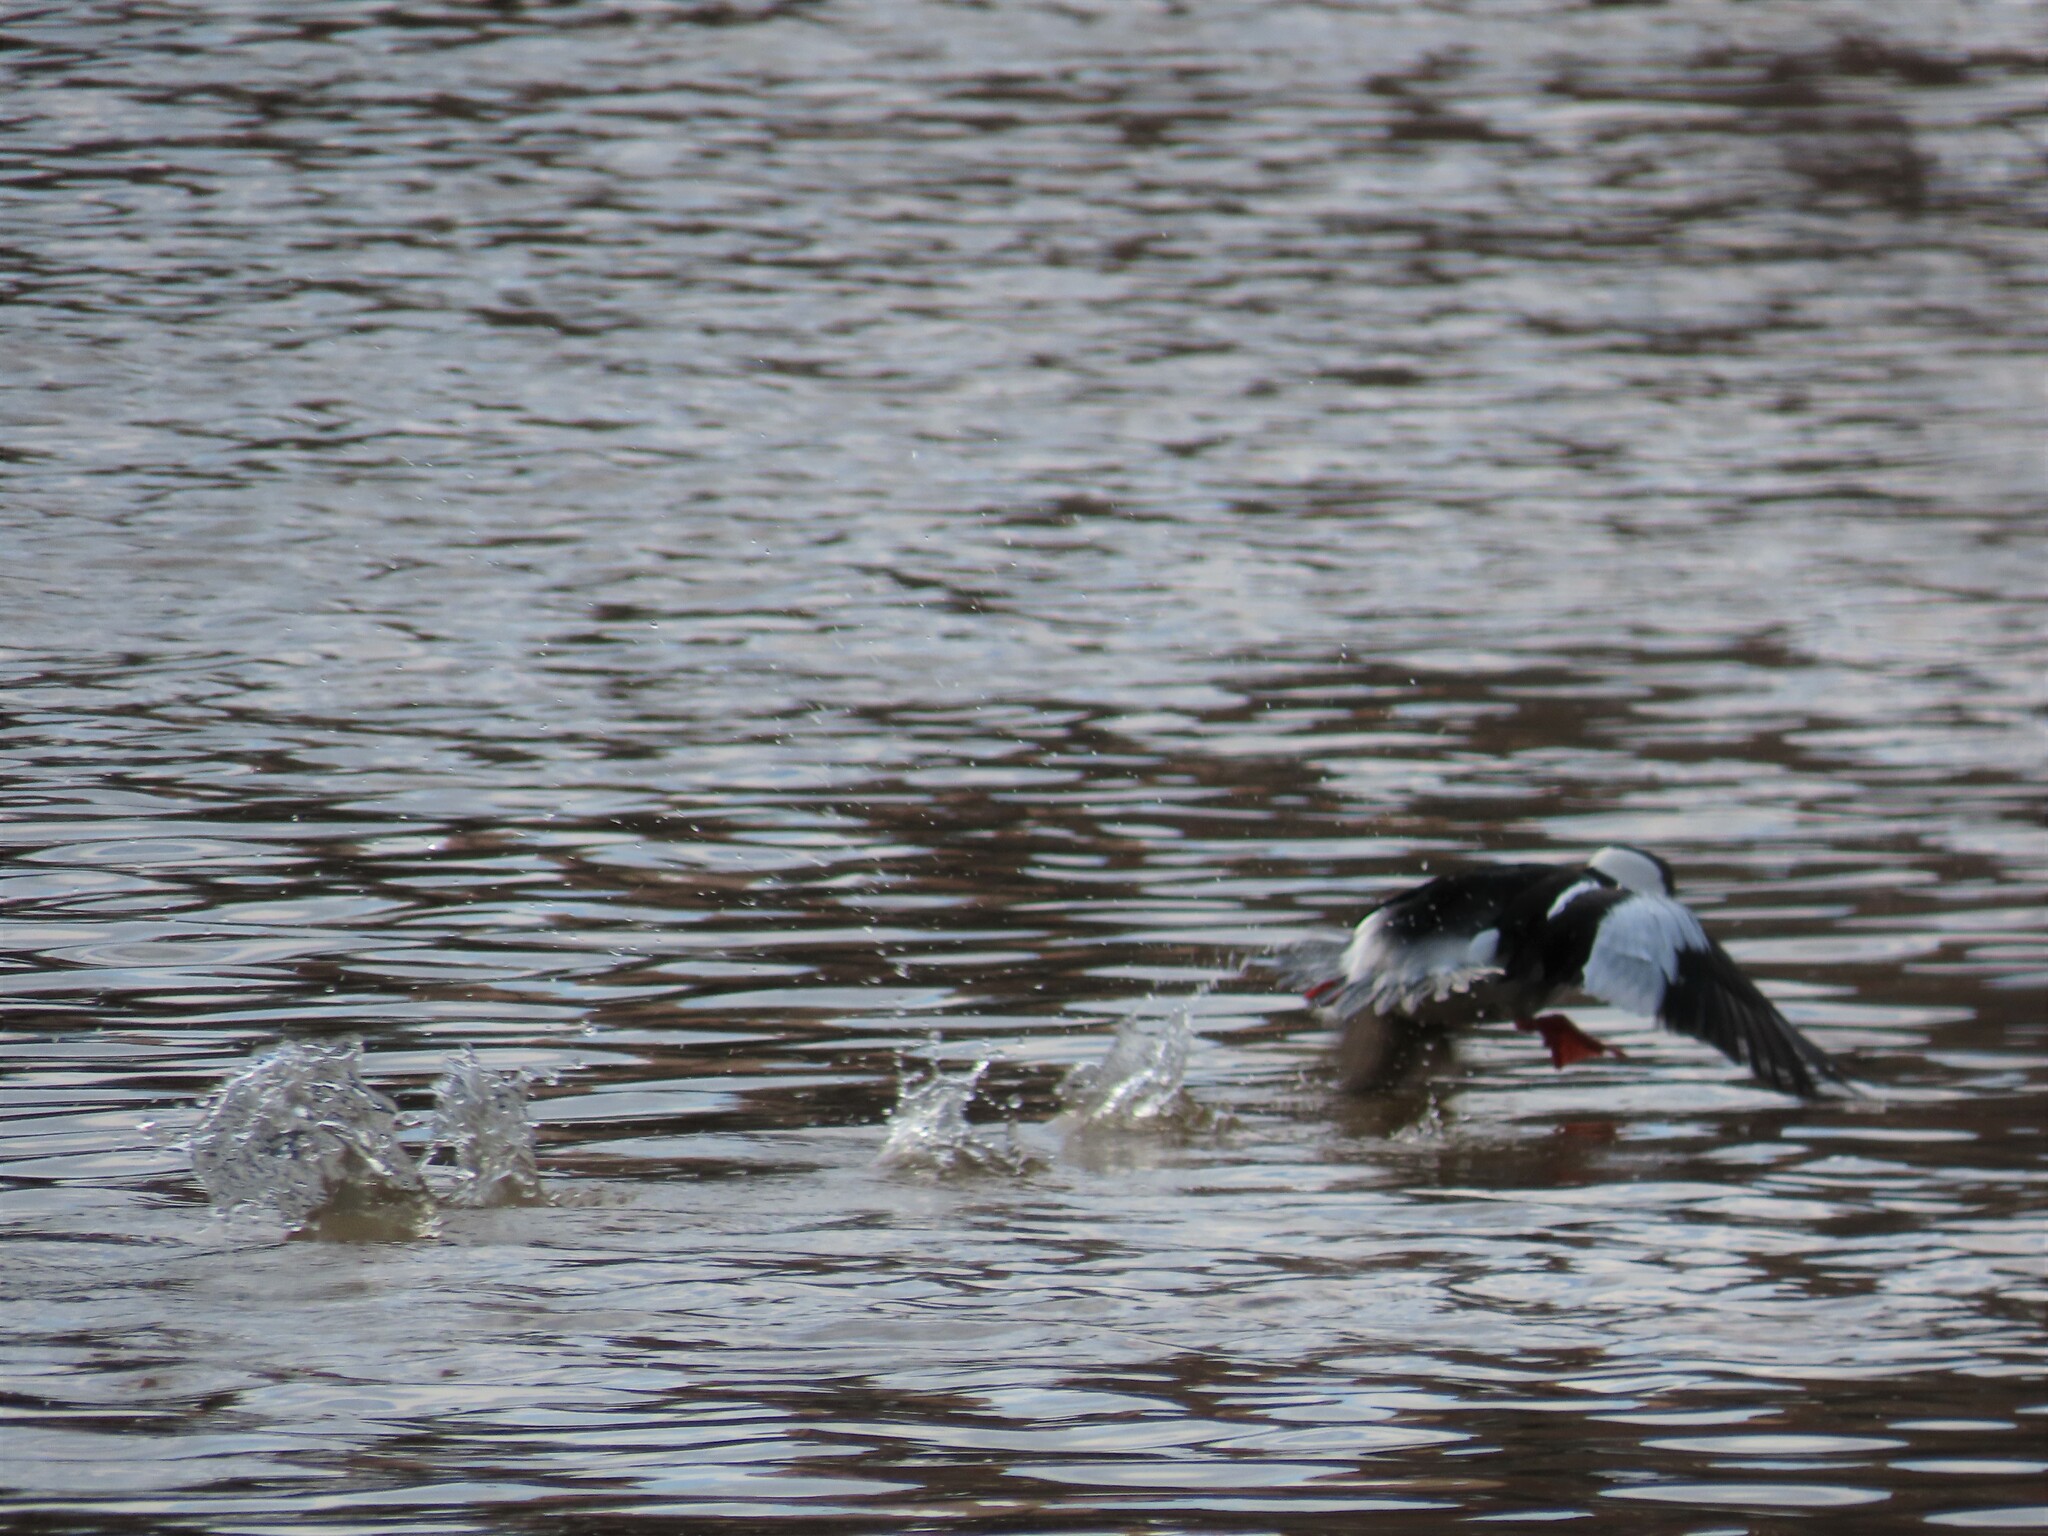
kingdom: Animalia
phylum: Chordata
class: Aves
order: Anseriformes
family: Anatidae
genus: Bucephala
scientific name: Bucephala albeola
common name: Bufflehead
